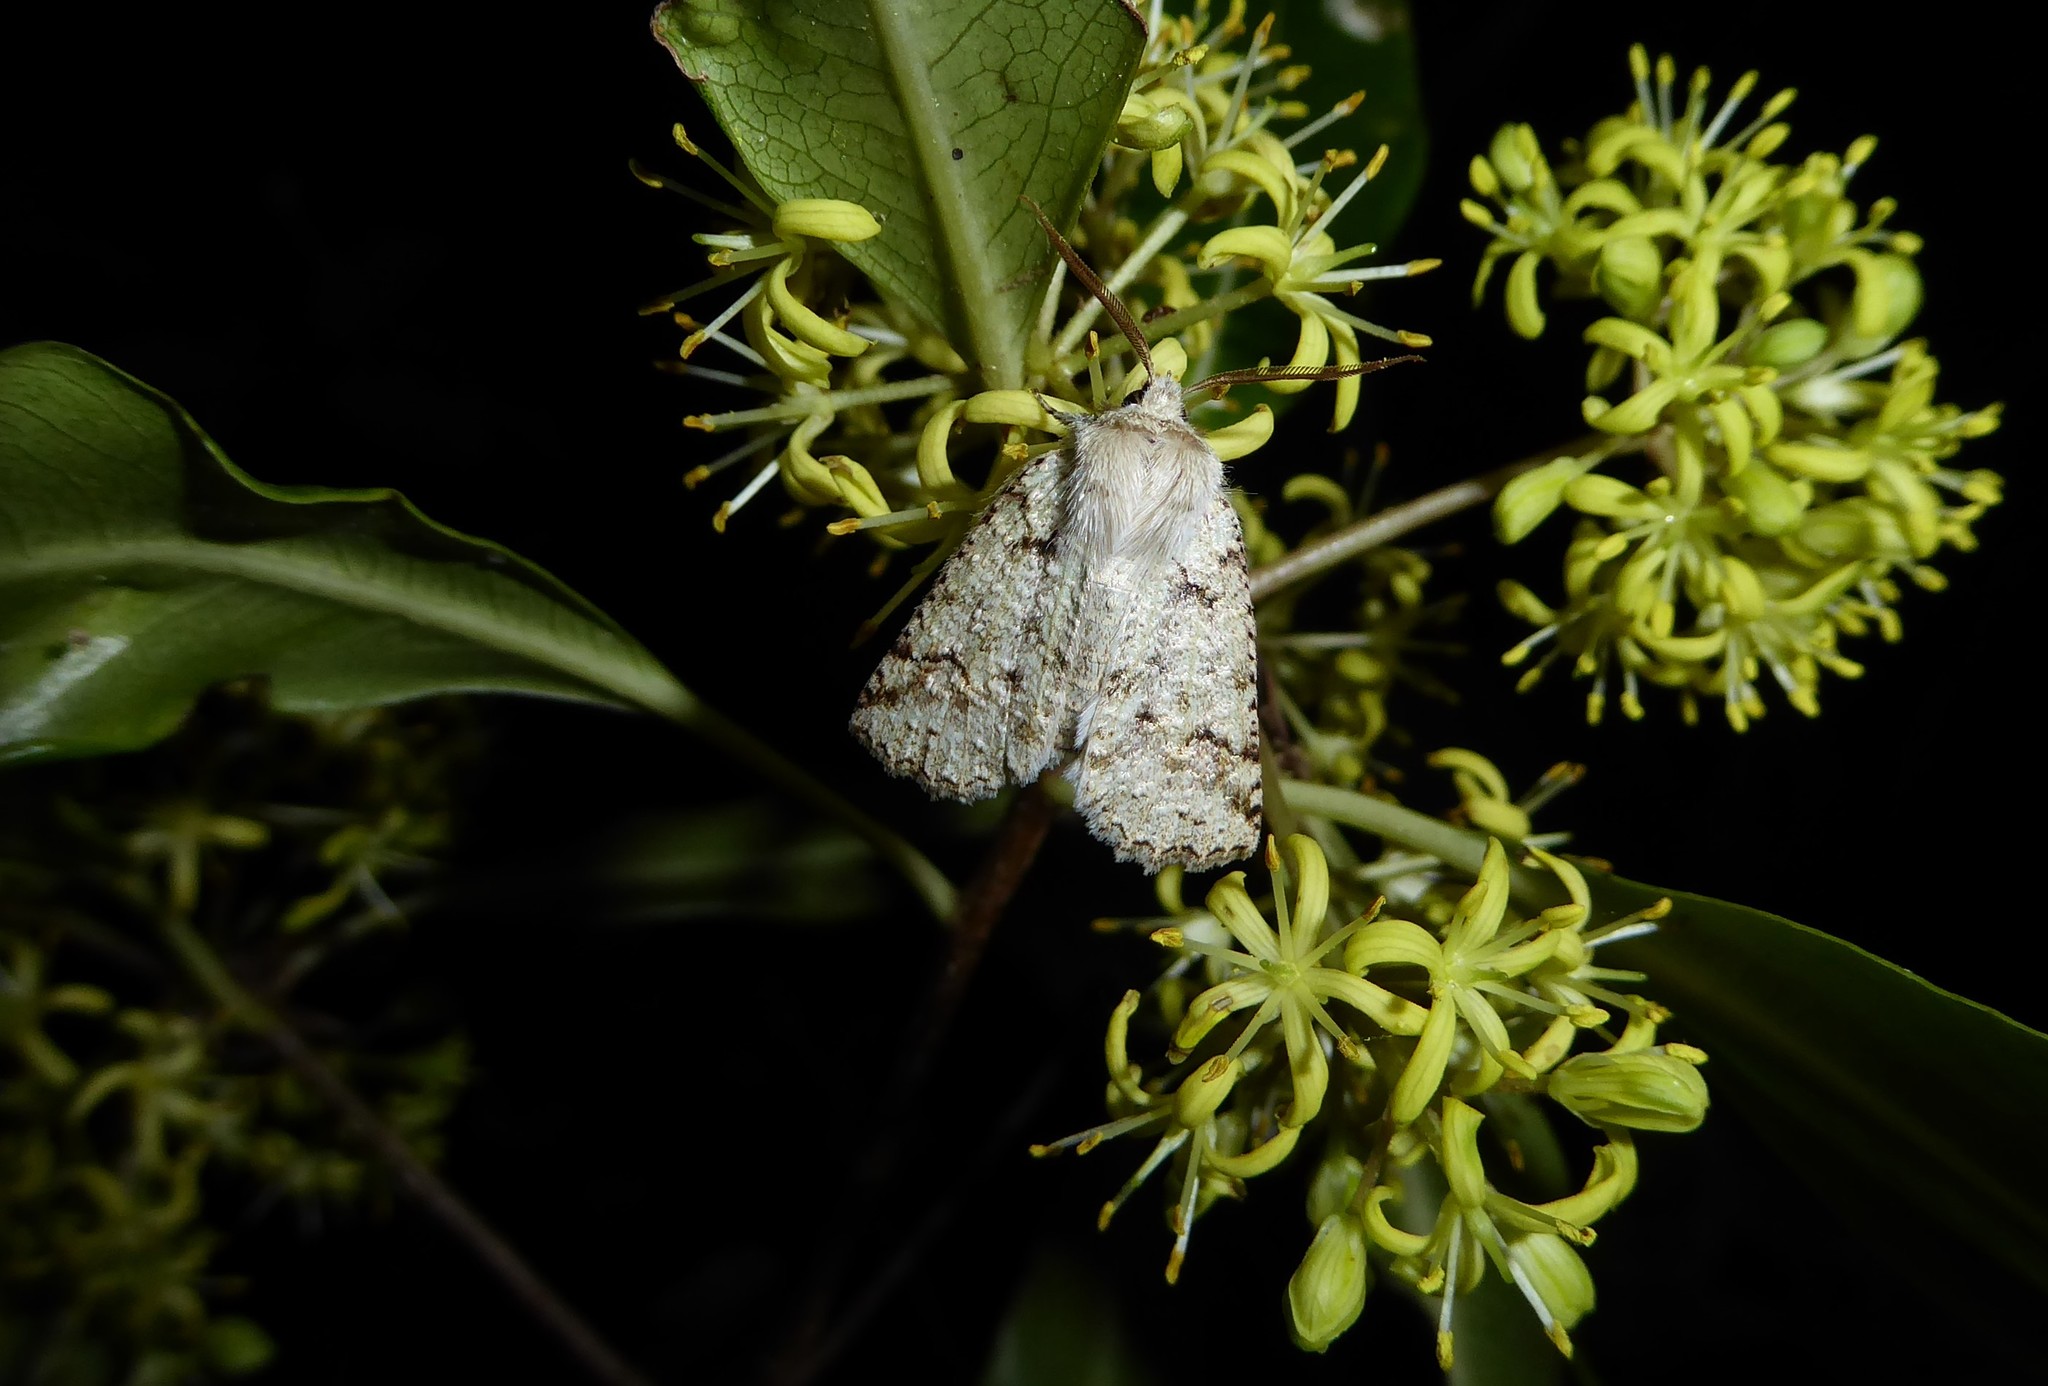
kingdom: Animalia
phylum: Arthropoda
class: Insecta
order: Lepidoptera
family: Geometridae
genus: Declana
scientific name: Declana floccosa
